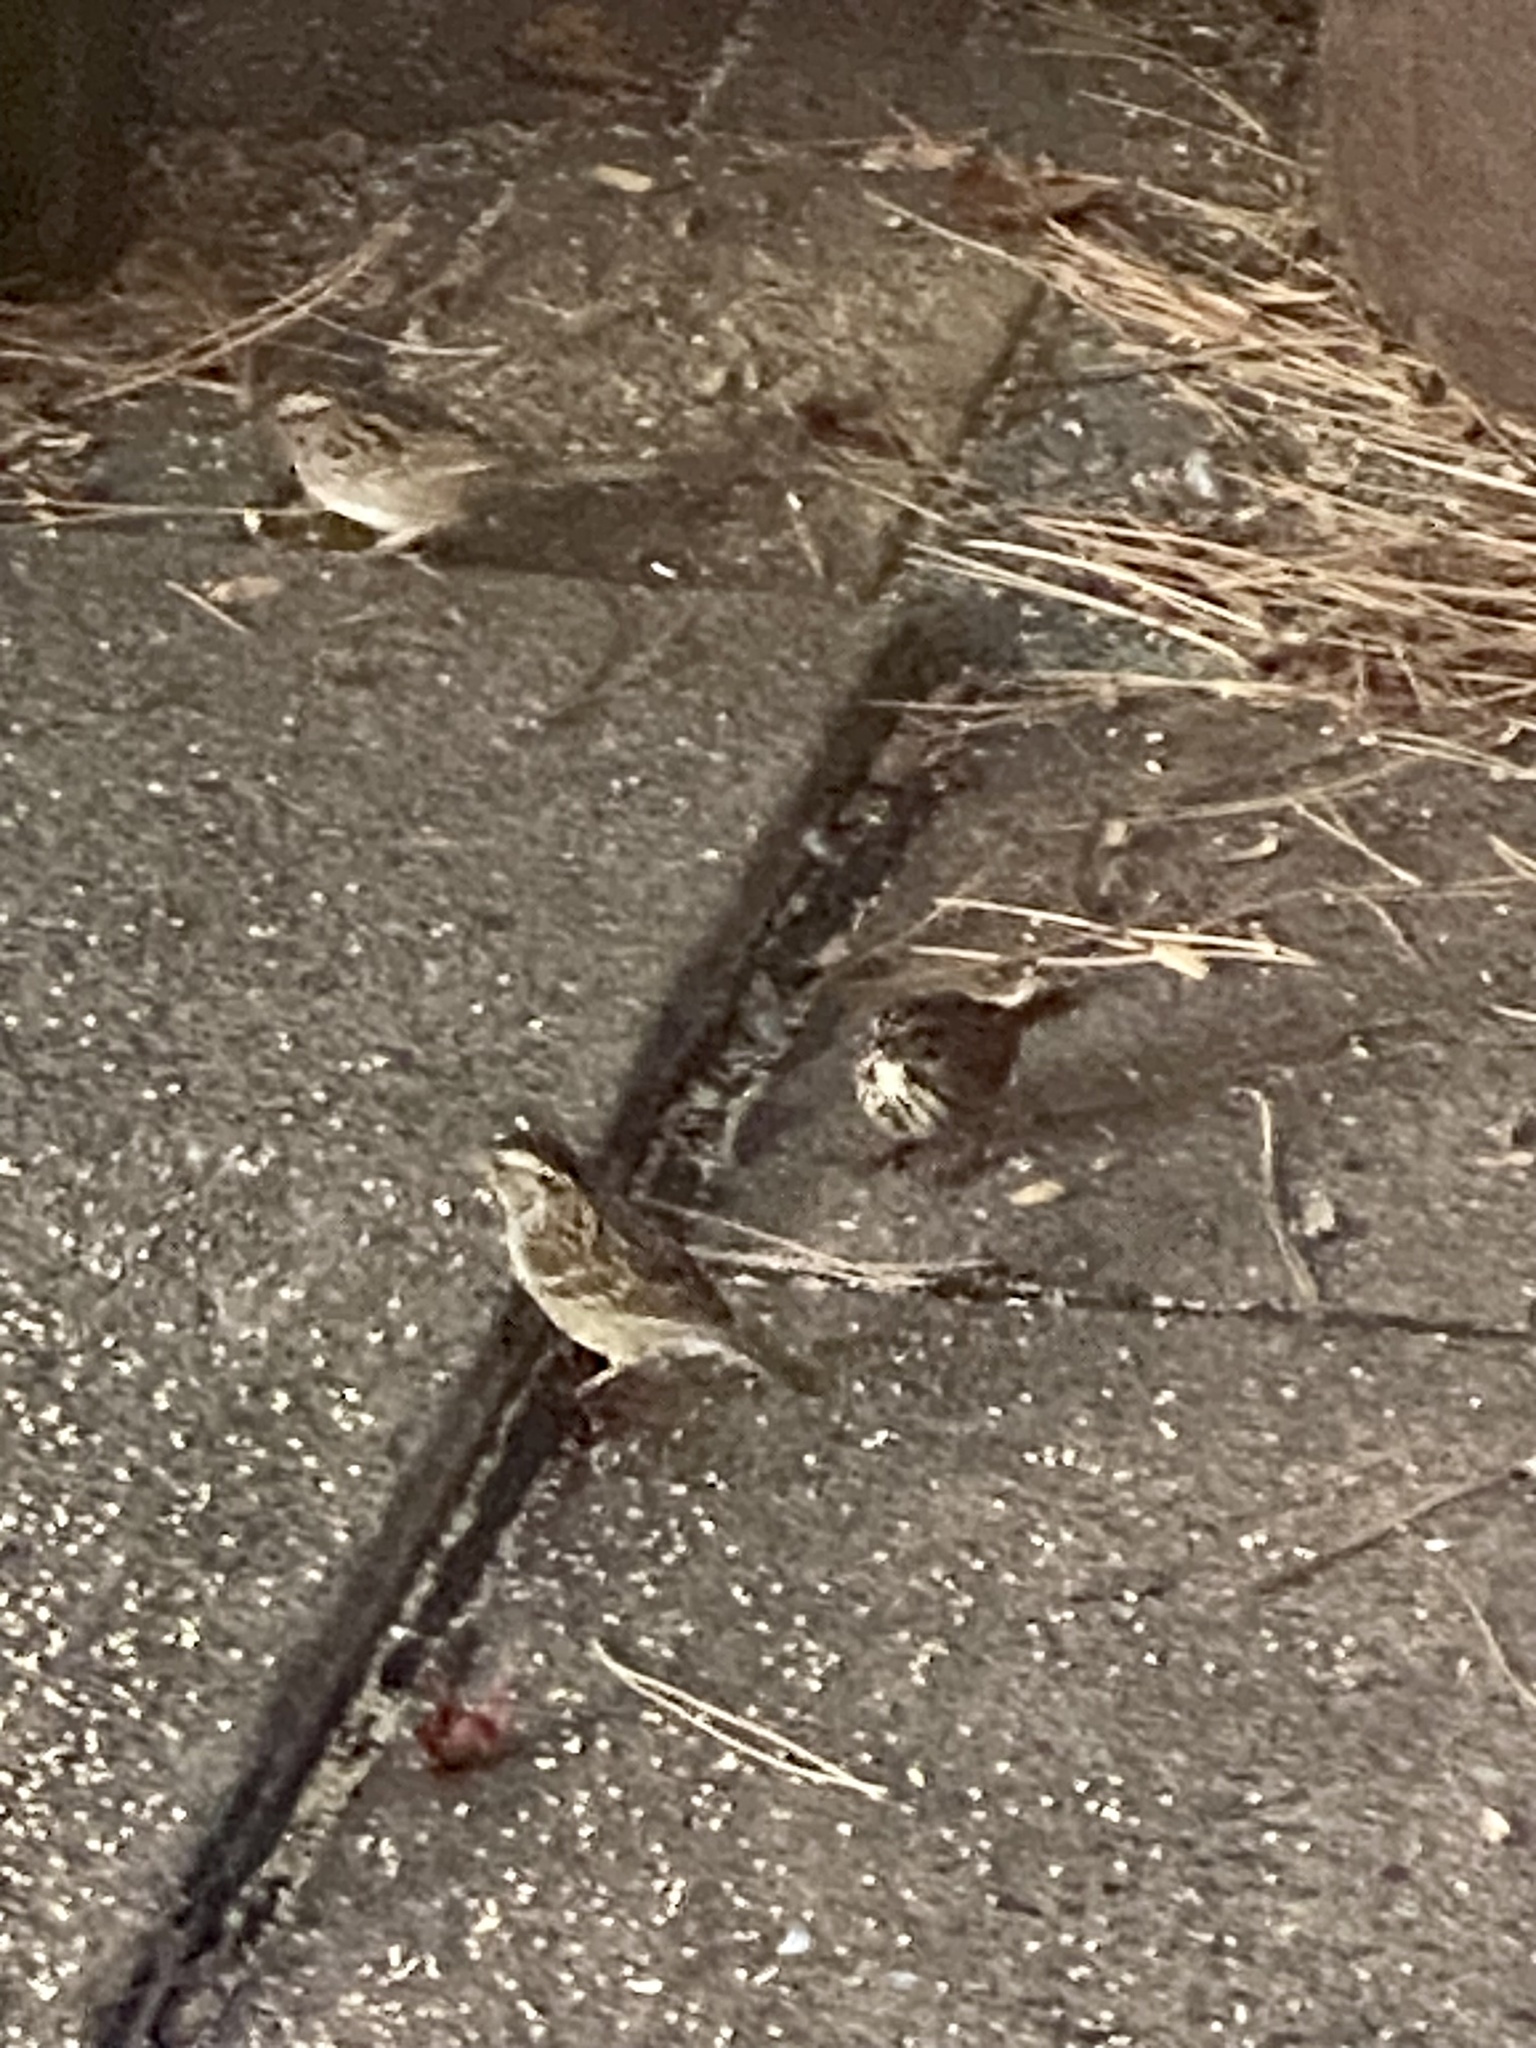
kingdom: Animalia
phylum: Chordata
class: Aves
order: Passeriformes
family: Passerellidae
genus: Melospiza
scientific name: Melospiza melodia
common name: Song sparrow
